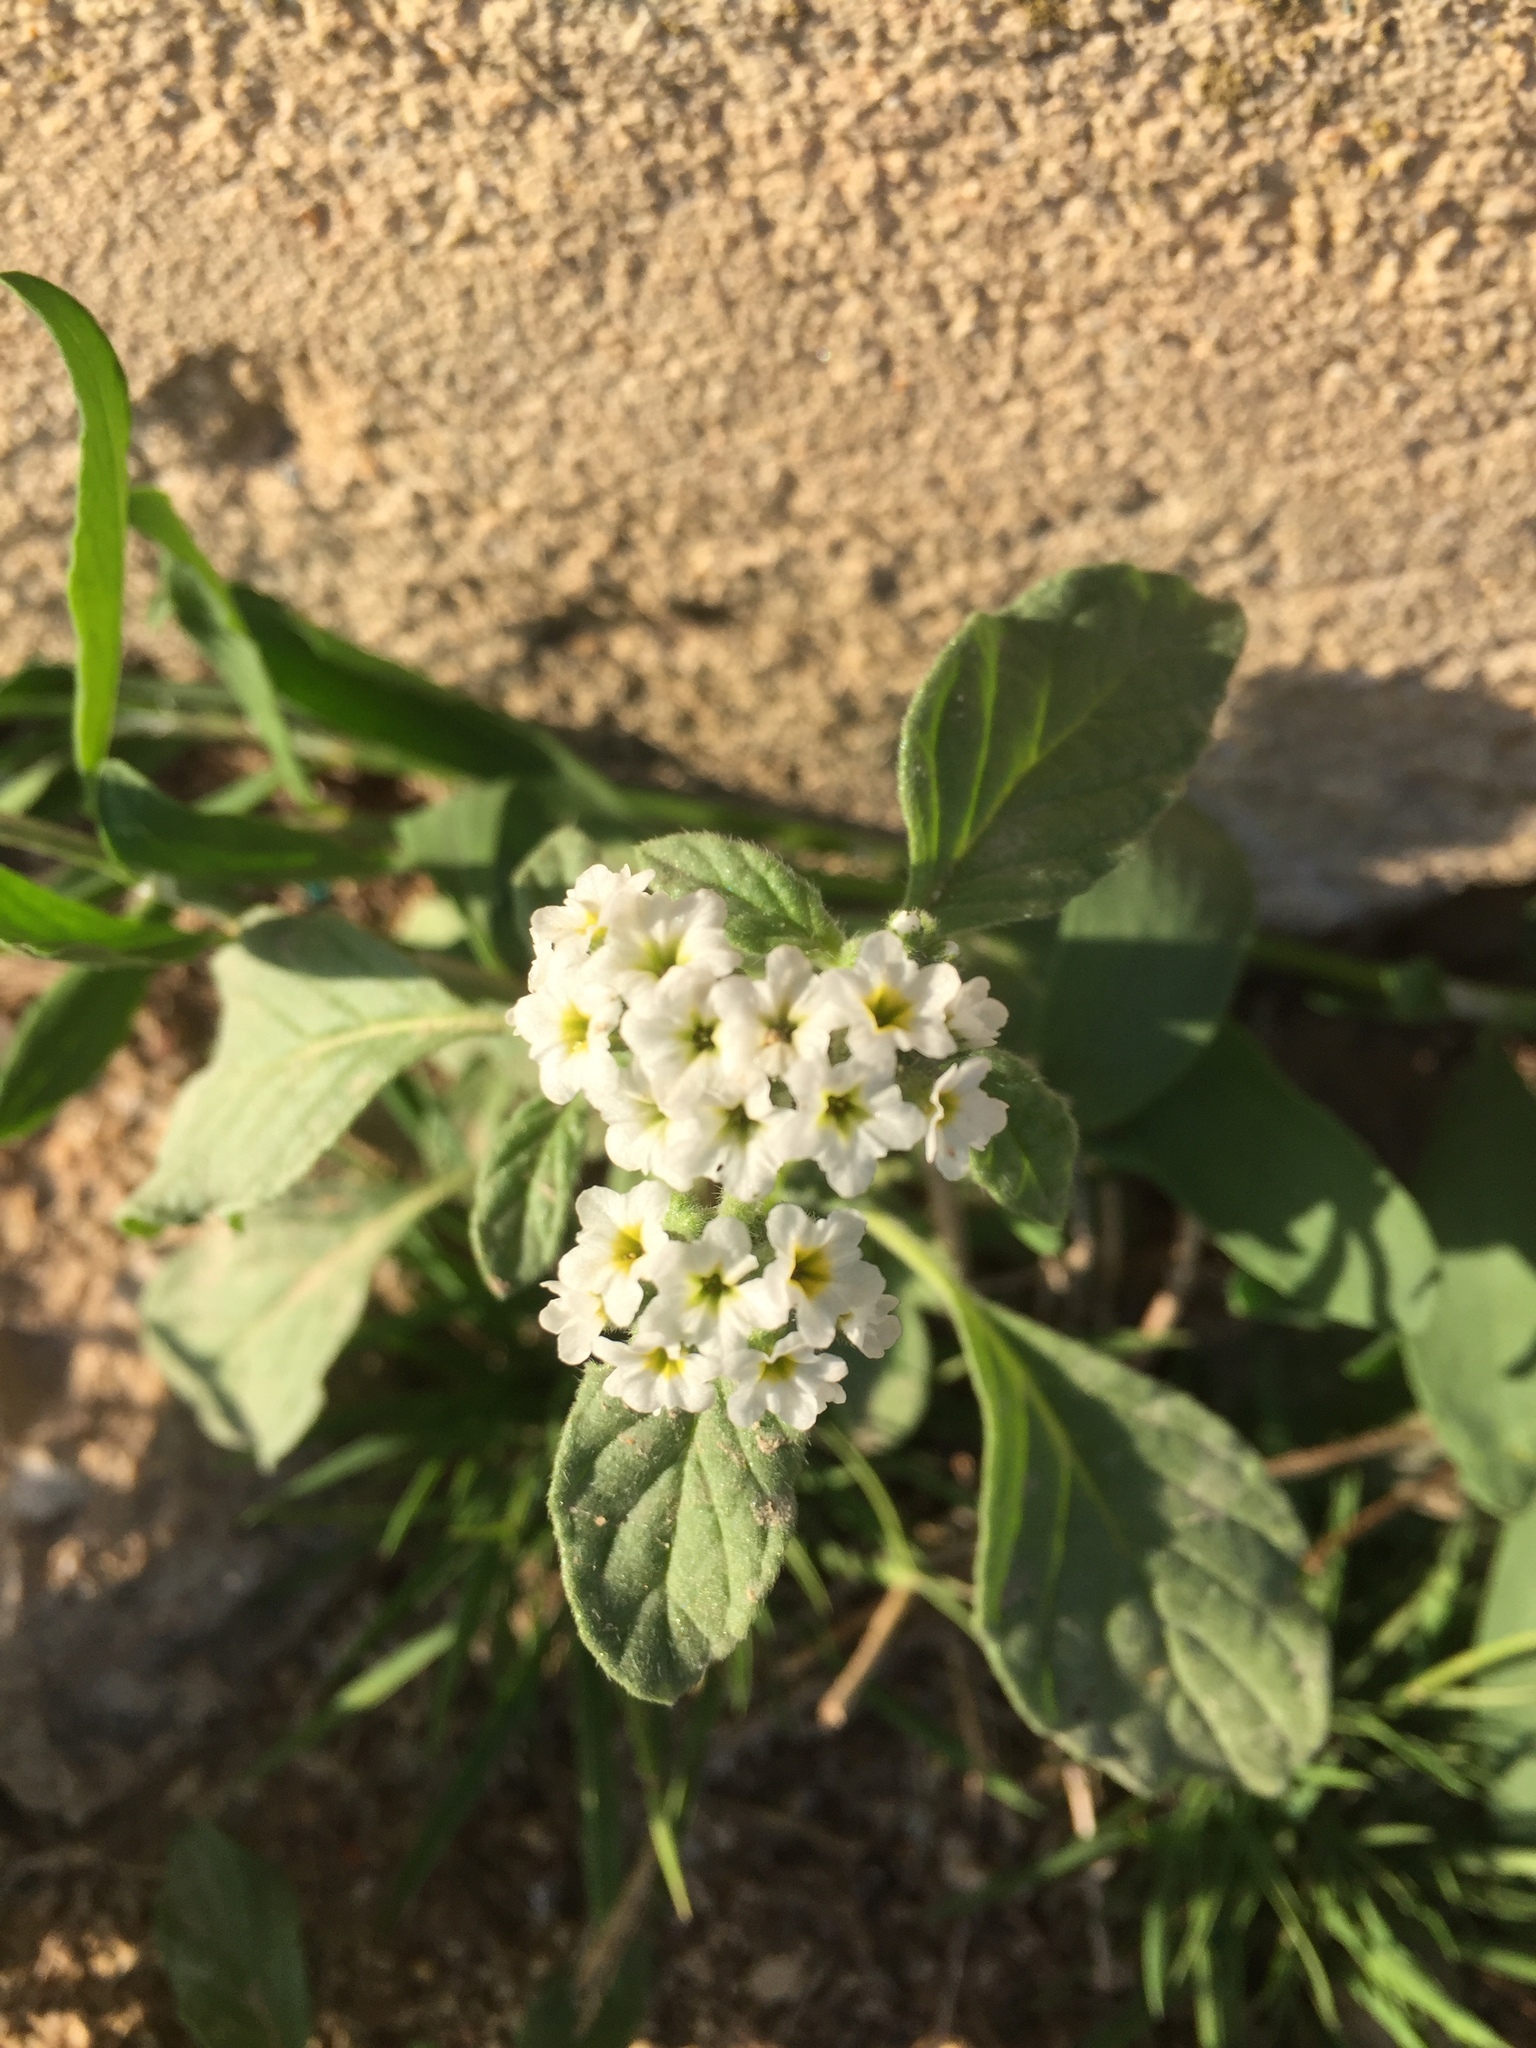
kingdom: Plantae
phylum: Tracheophyta
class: Magnoliopsida
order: Boraginales
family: Heliotropiaceae
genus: Heliotropium
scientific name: Heliotropium europaeum
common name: European heliotrope
